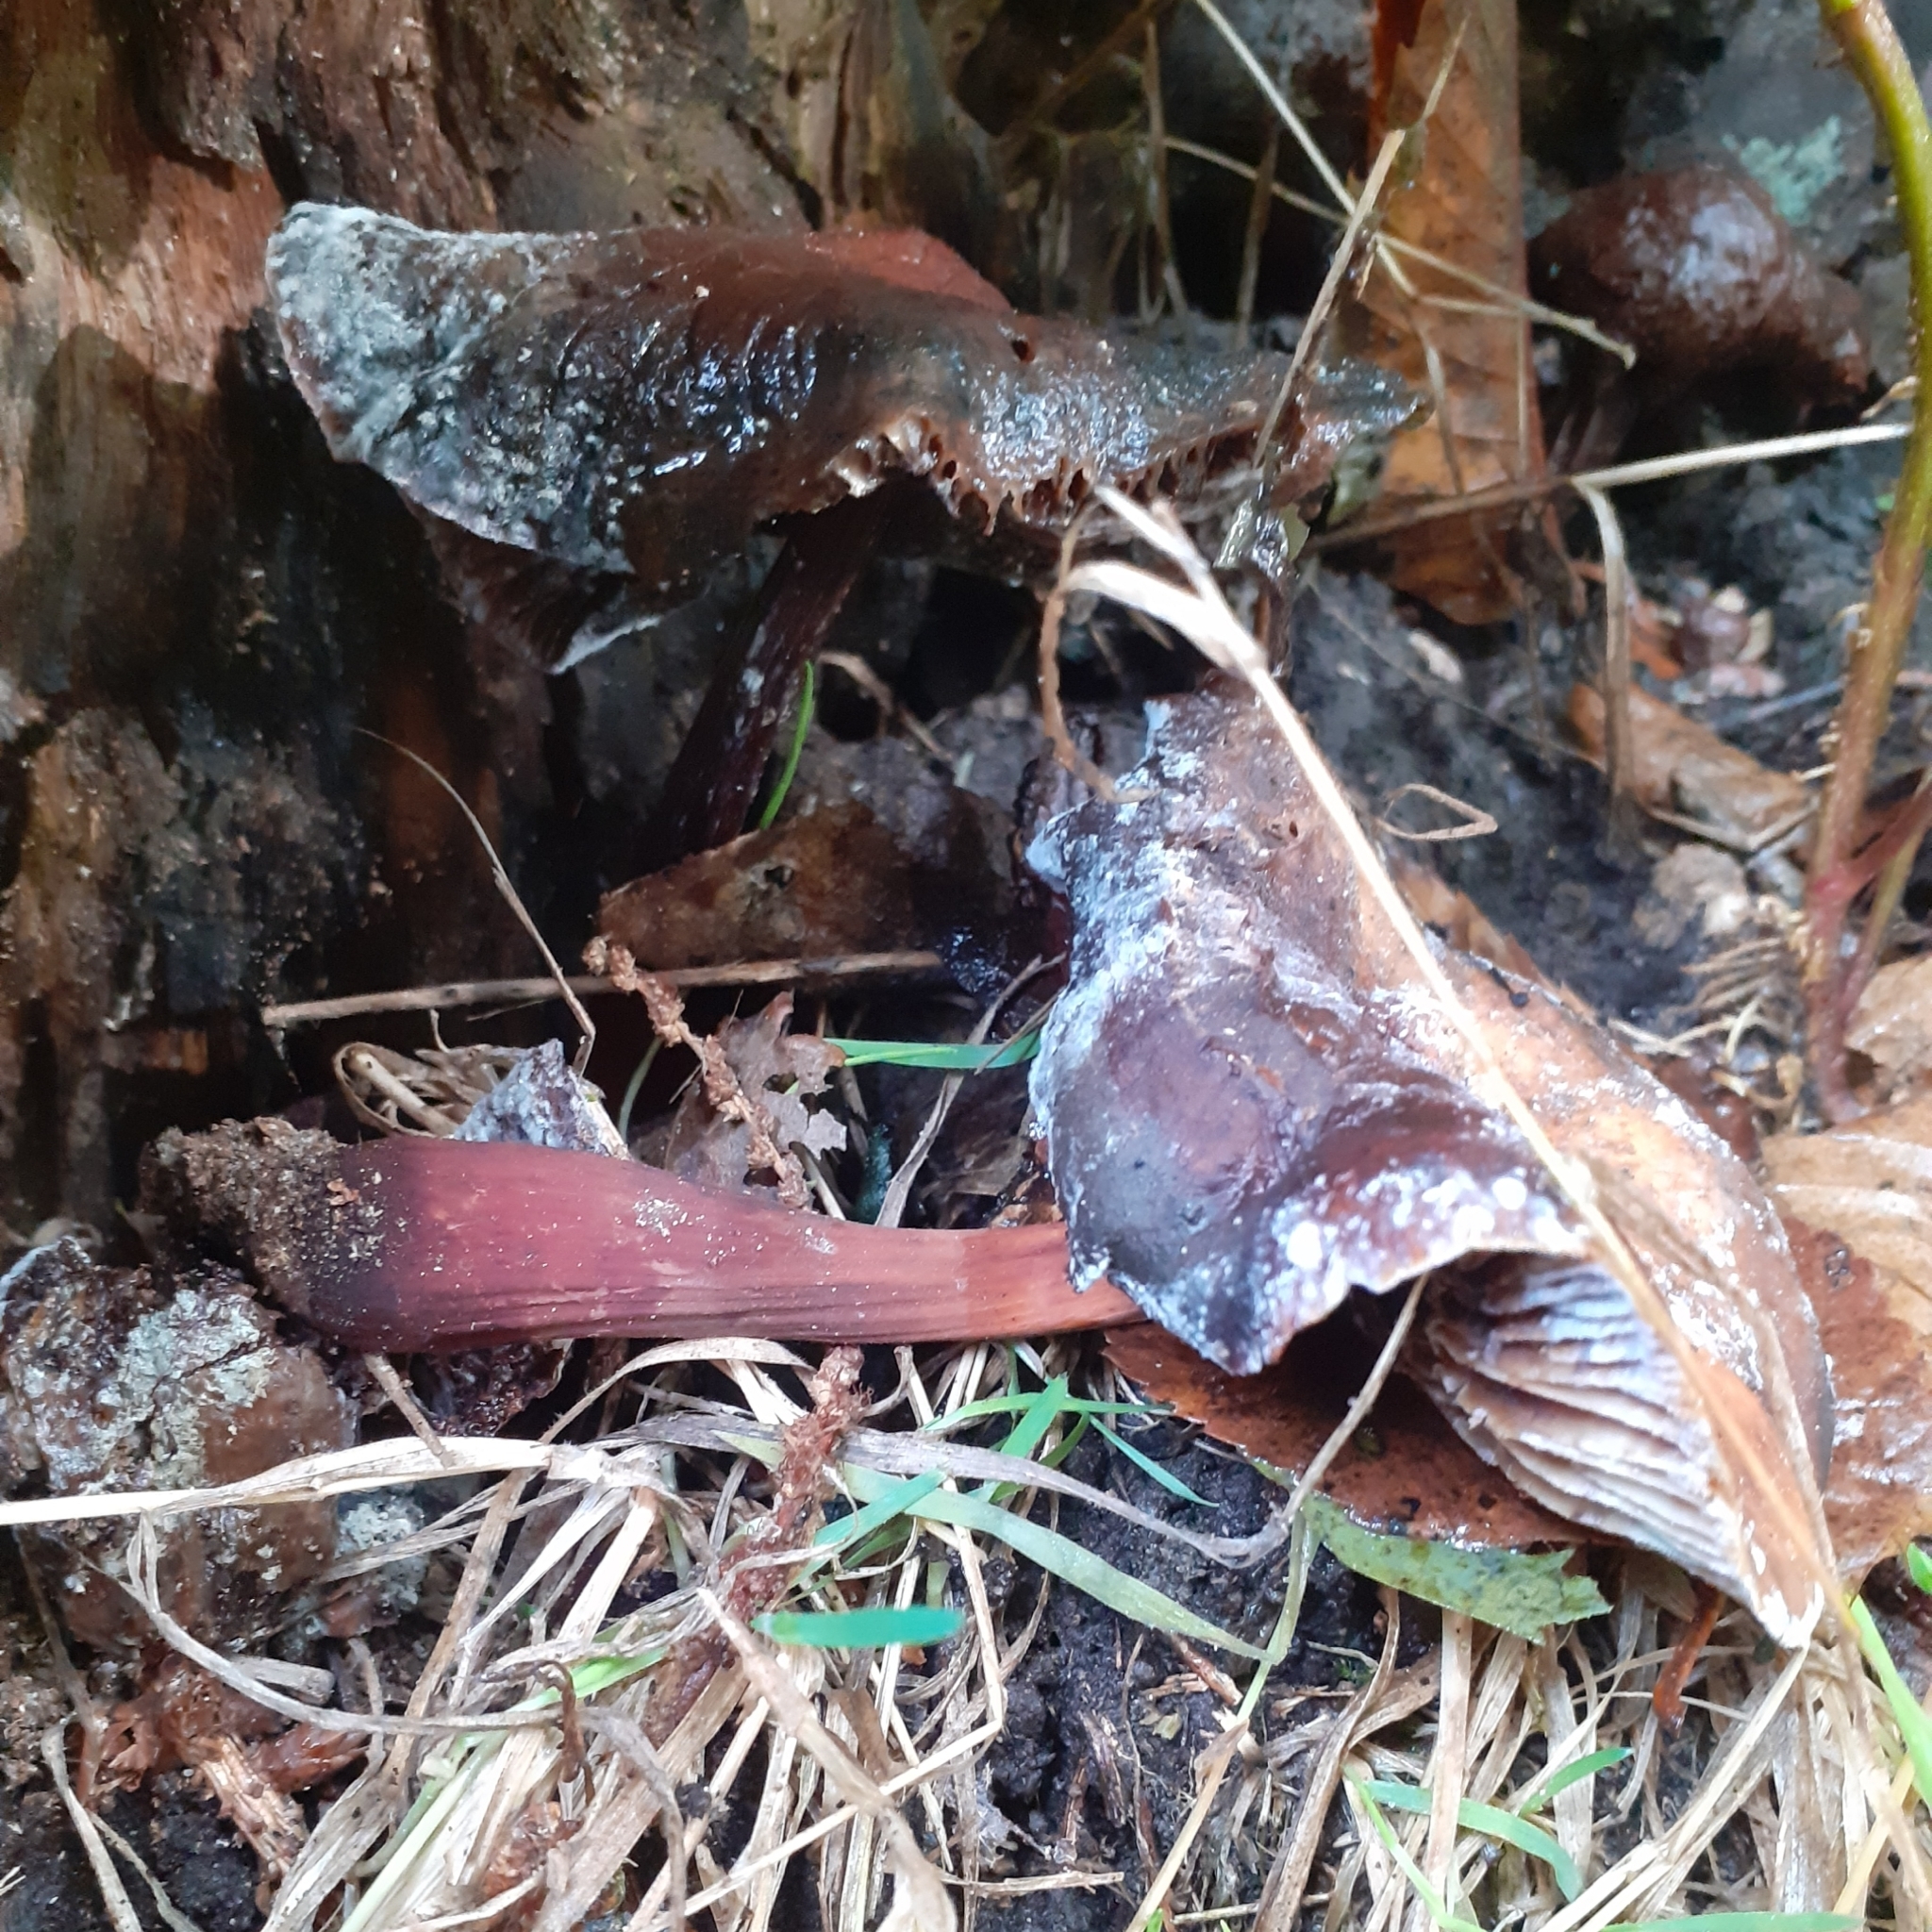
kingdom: Fungi
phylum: Basidiomycota
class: Agaricomycetes
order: Agaricales
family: Omphalotaceae
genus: Gymnopus
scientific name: Gymnopus fusipes
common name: Spindle shank
